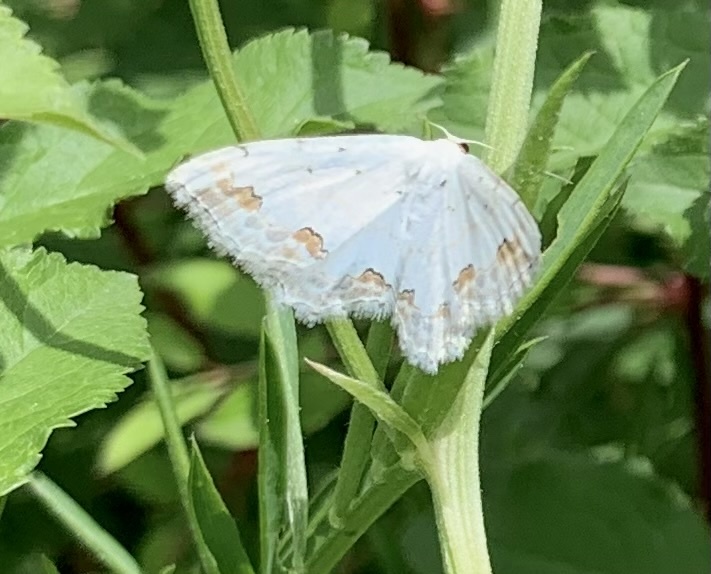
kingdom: Animalia
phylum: Arthropoda
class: Insecta
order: Lepidoptera
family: Geometridae
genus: Scopula
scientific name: Scopula ornata
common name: Lace border
